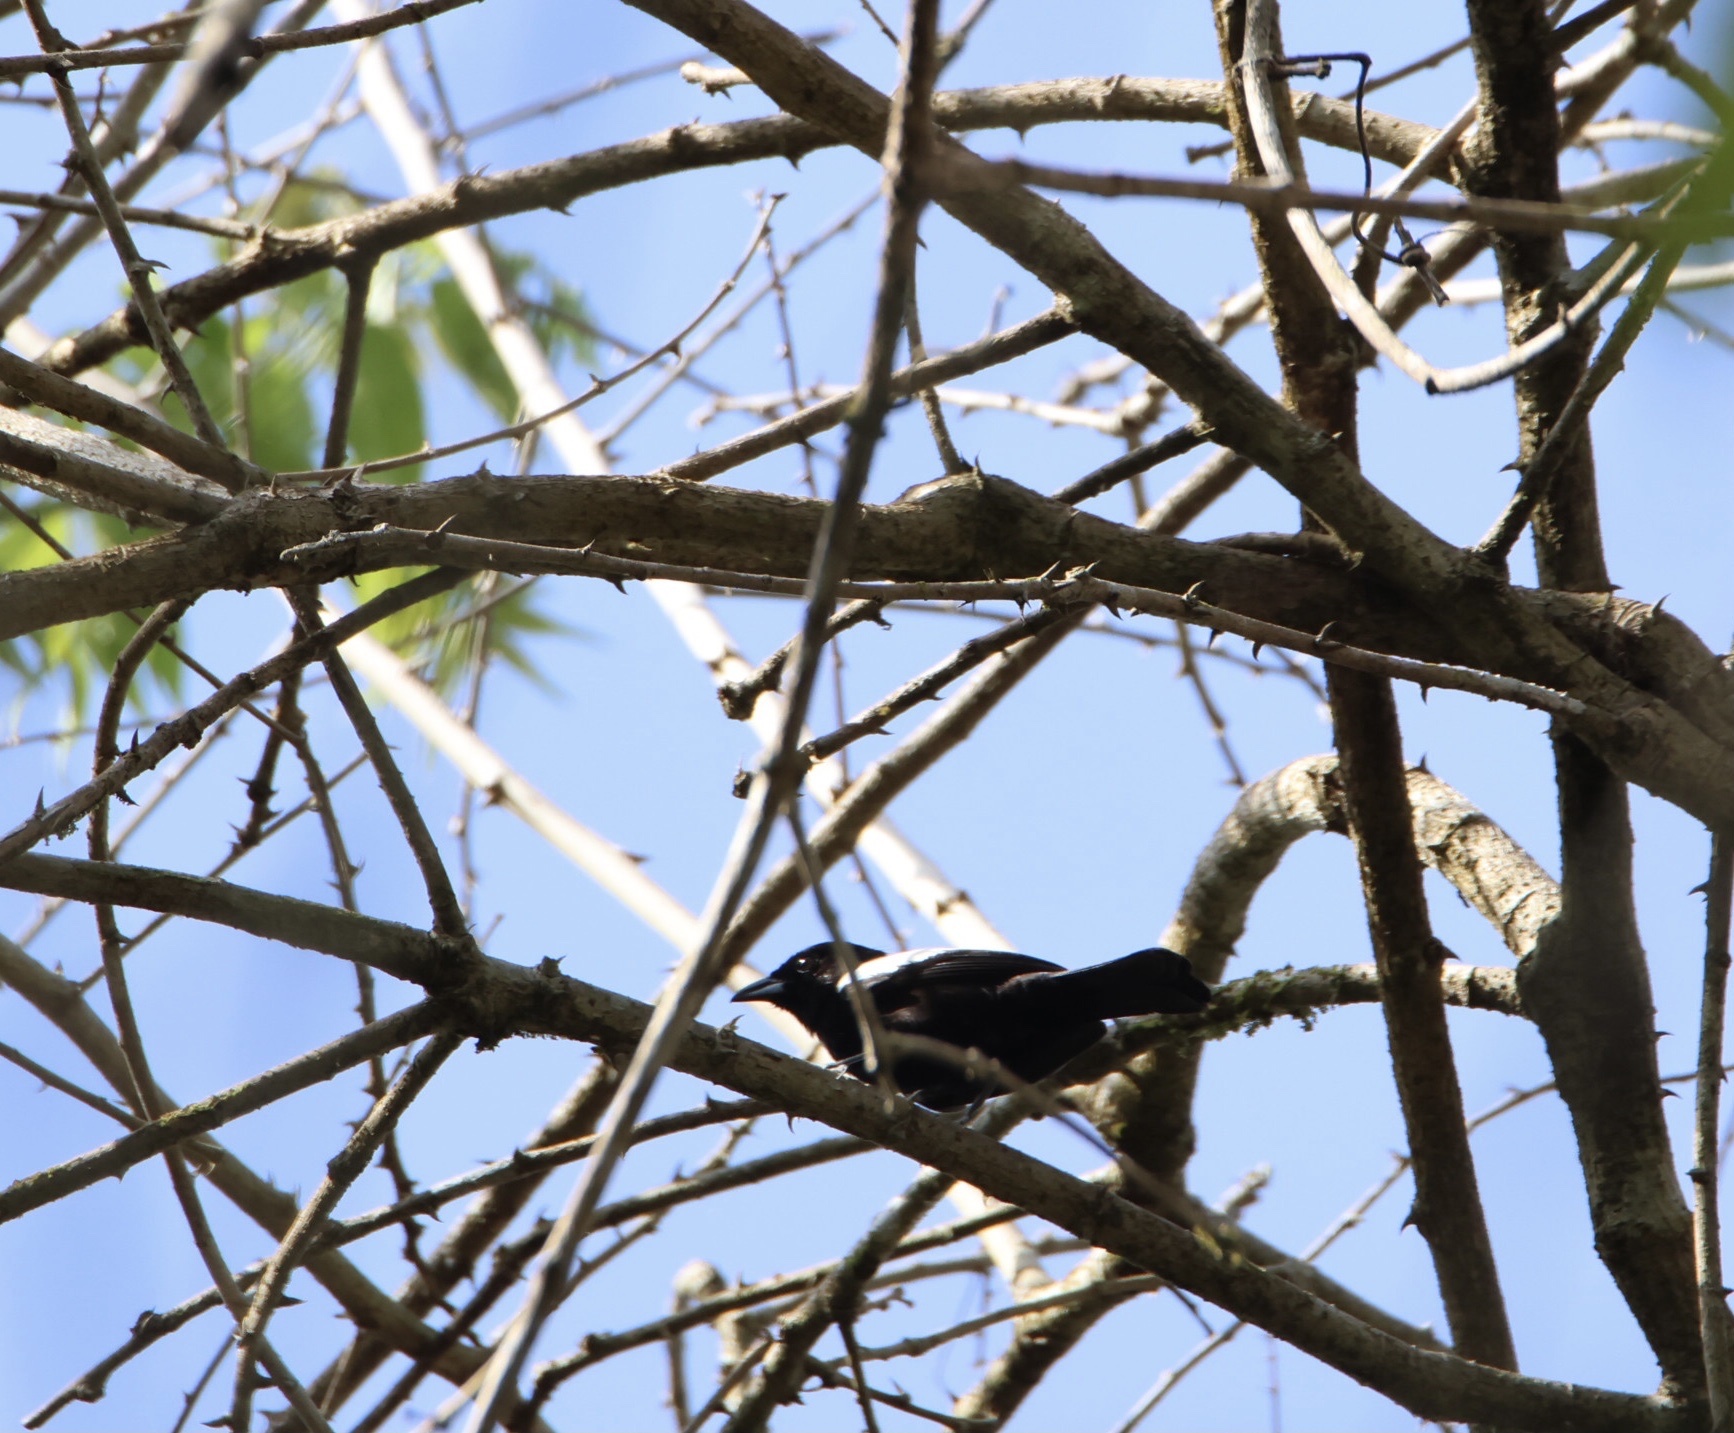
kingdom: Animalia
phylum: Chordata
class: Aves
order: Passeriformes
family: Thraupidae
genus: Loriotus
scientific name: Loriotus luctuosus
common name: White-shouldered tanager
